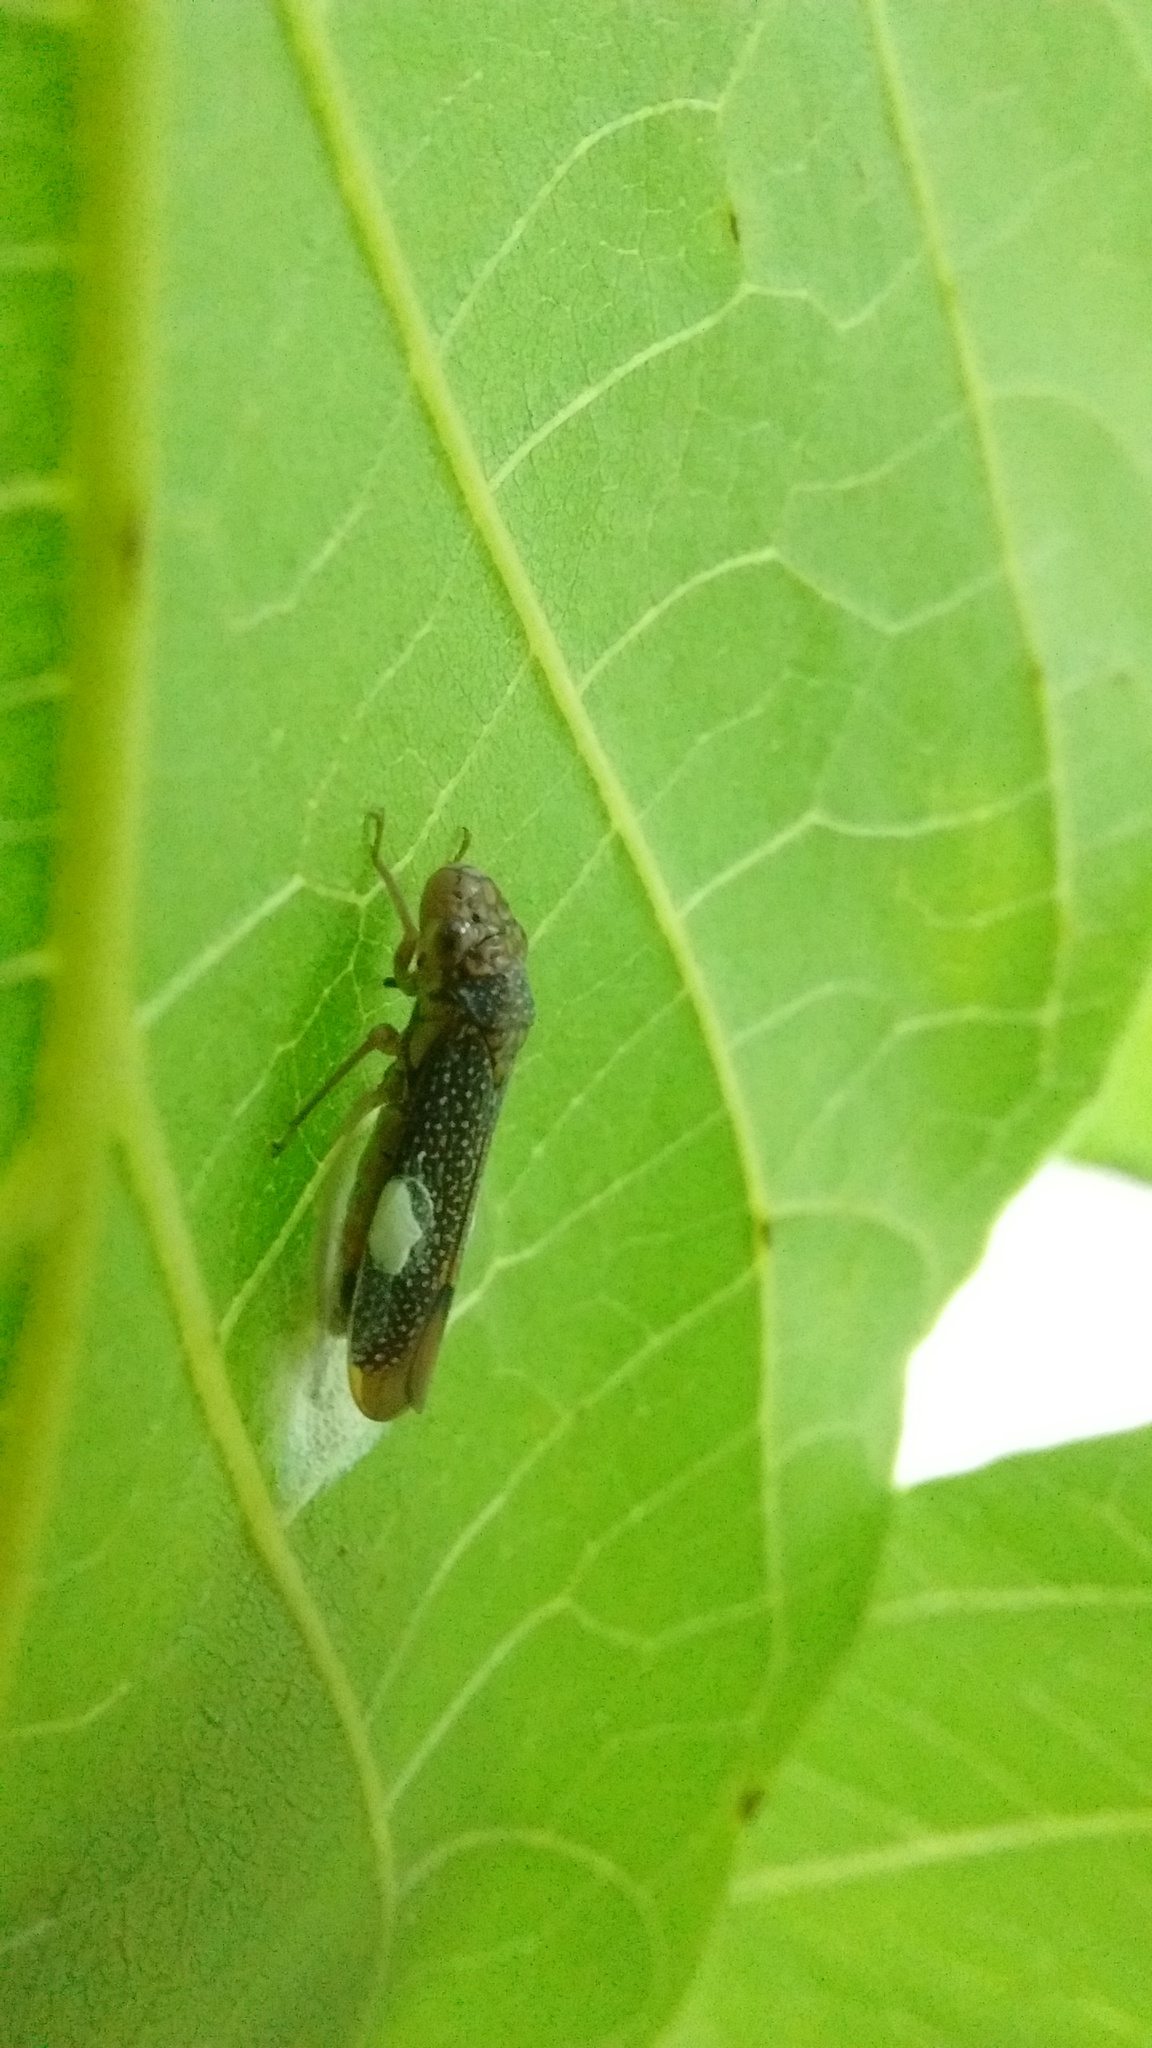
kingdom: Animalia
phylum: Arthropoda
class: Insecta
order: Hemiptera
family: Cicadellidae
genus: Molomea
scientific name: Molomea lineiceps
